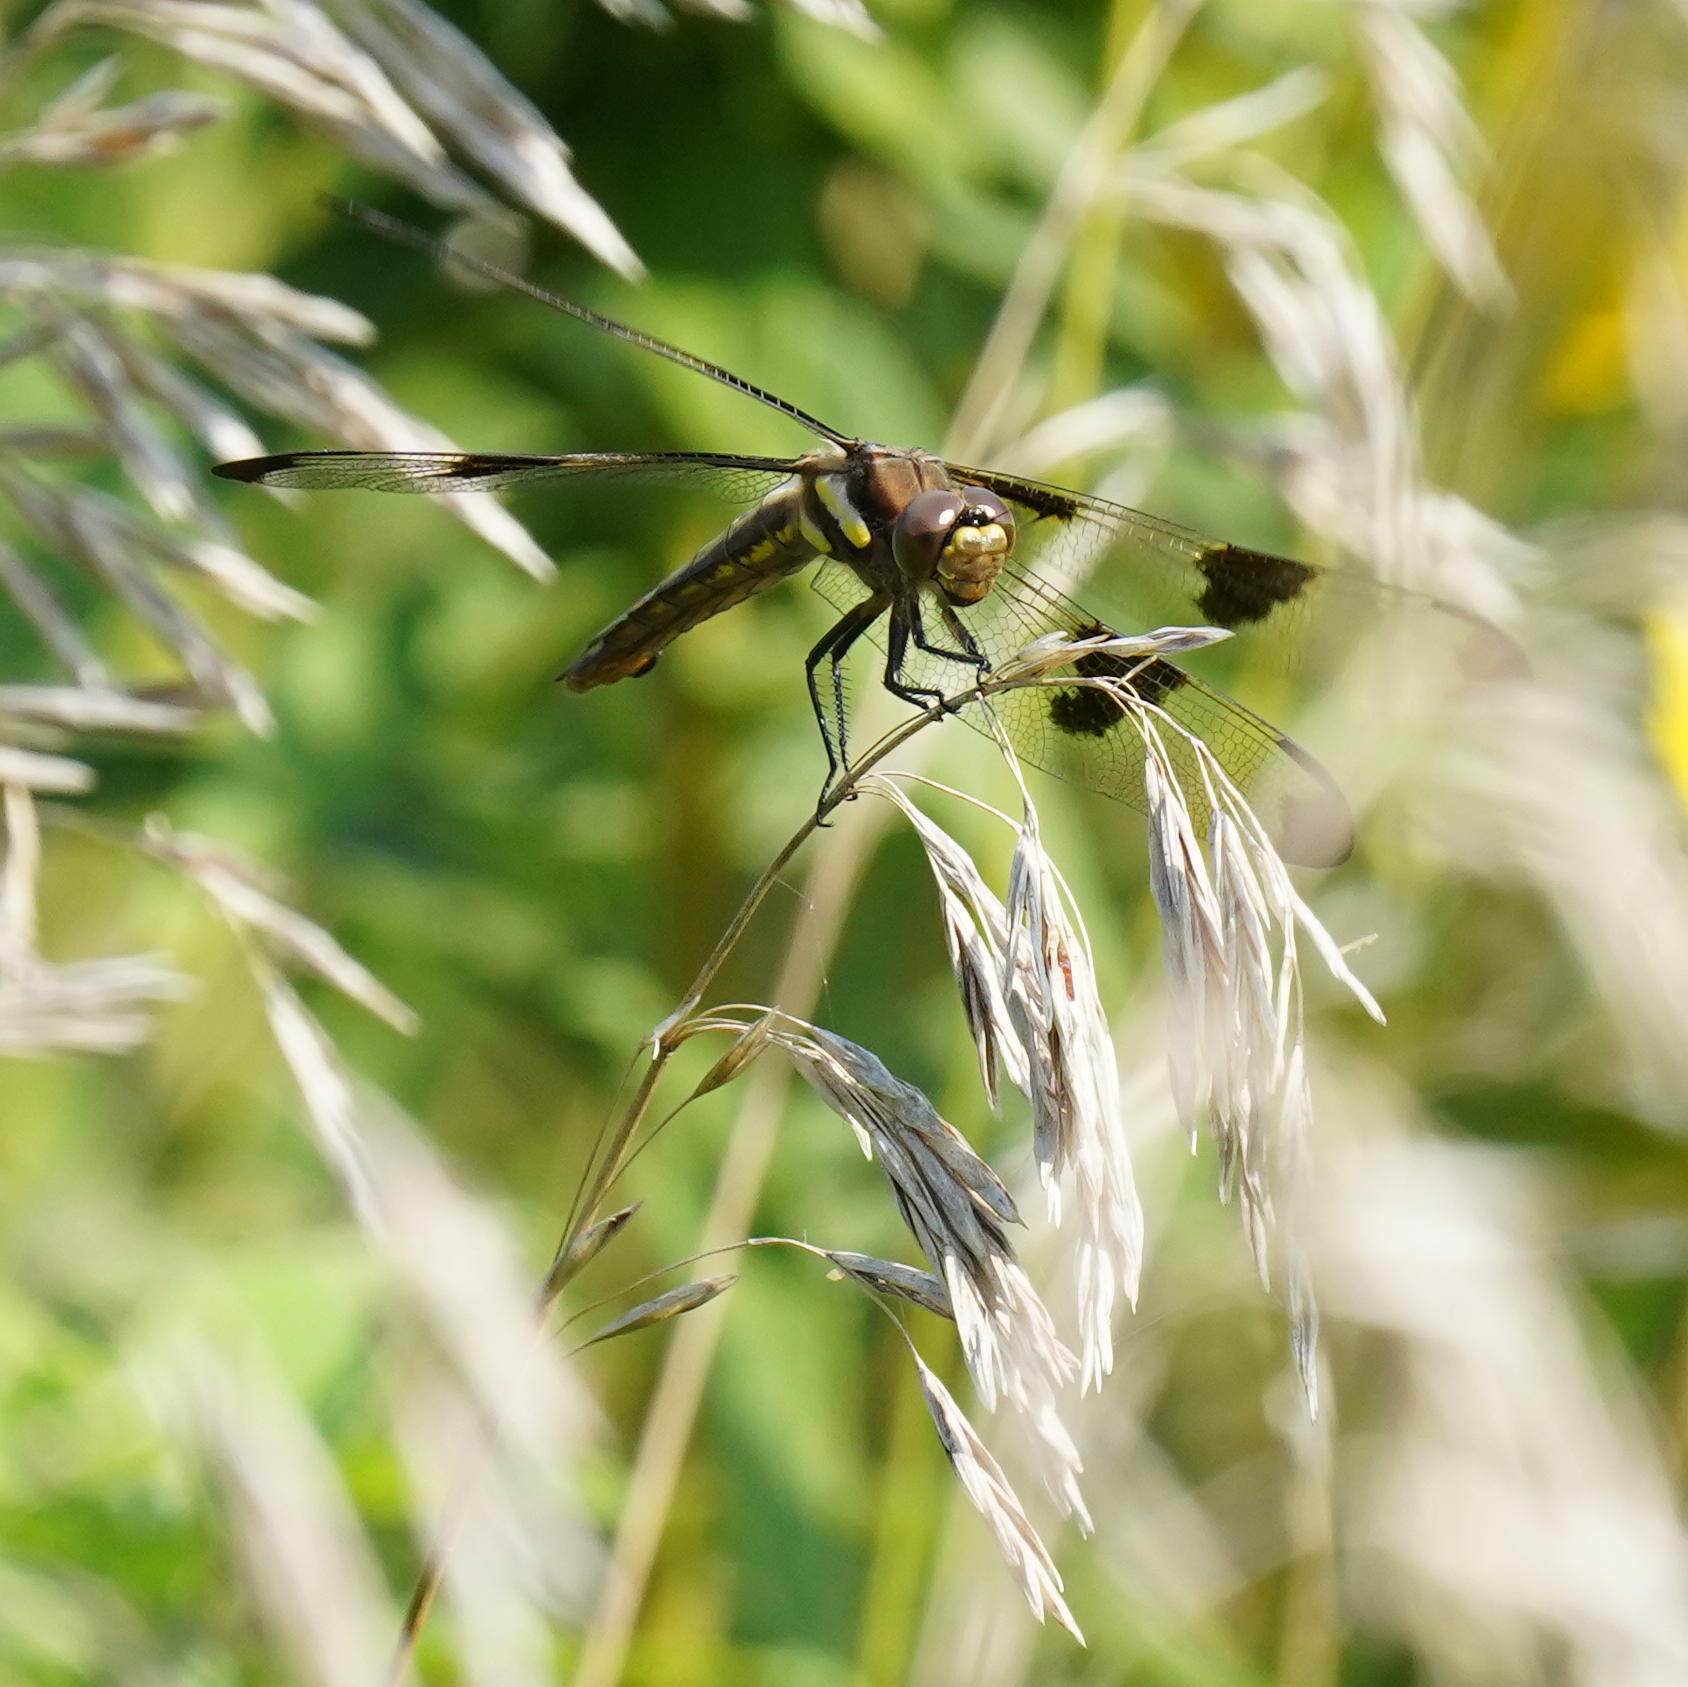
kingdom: Animalia
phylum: Arthropoda
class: Insecta
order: Odonata
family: Libellulidae
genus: Libellula
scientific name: Libellula pulchella
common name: Twelve-spotted skimmer
